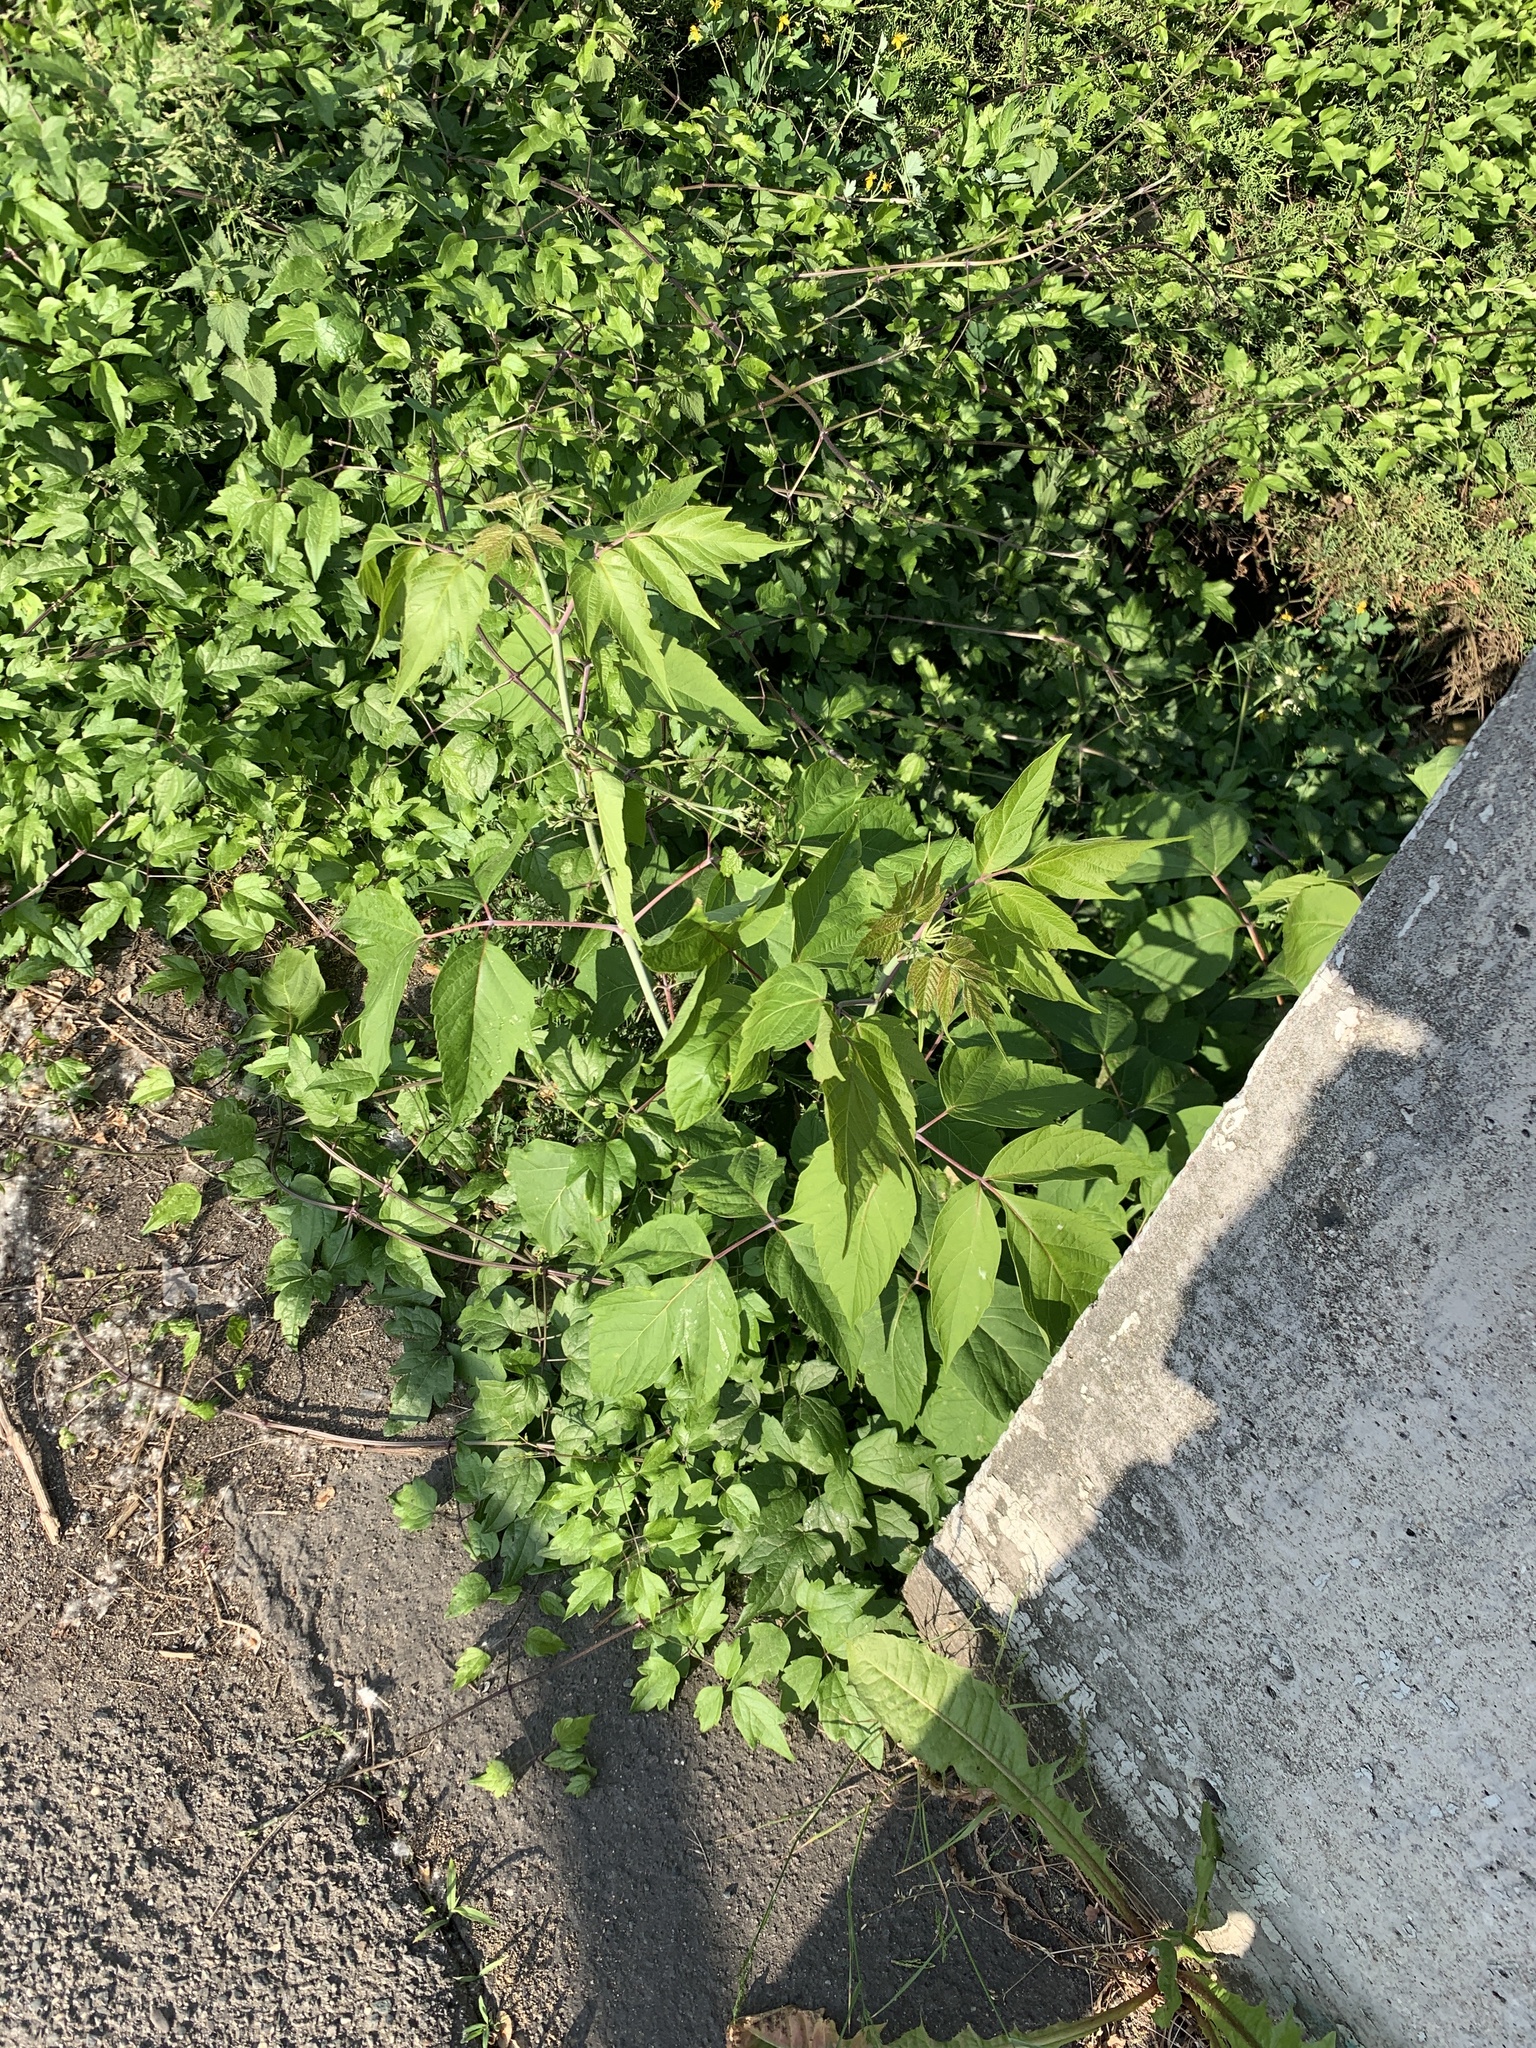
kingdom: Plantae
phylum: Tracheophyta
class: Magnoliopsida
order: Sapindales
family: Sapindaceae
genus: Acer
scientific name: Acer negundo
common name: Ashleaf maple
